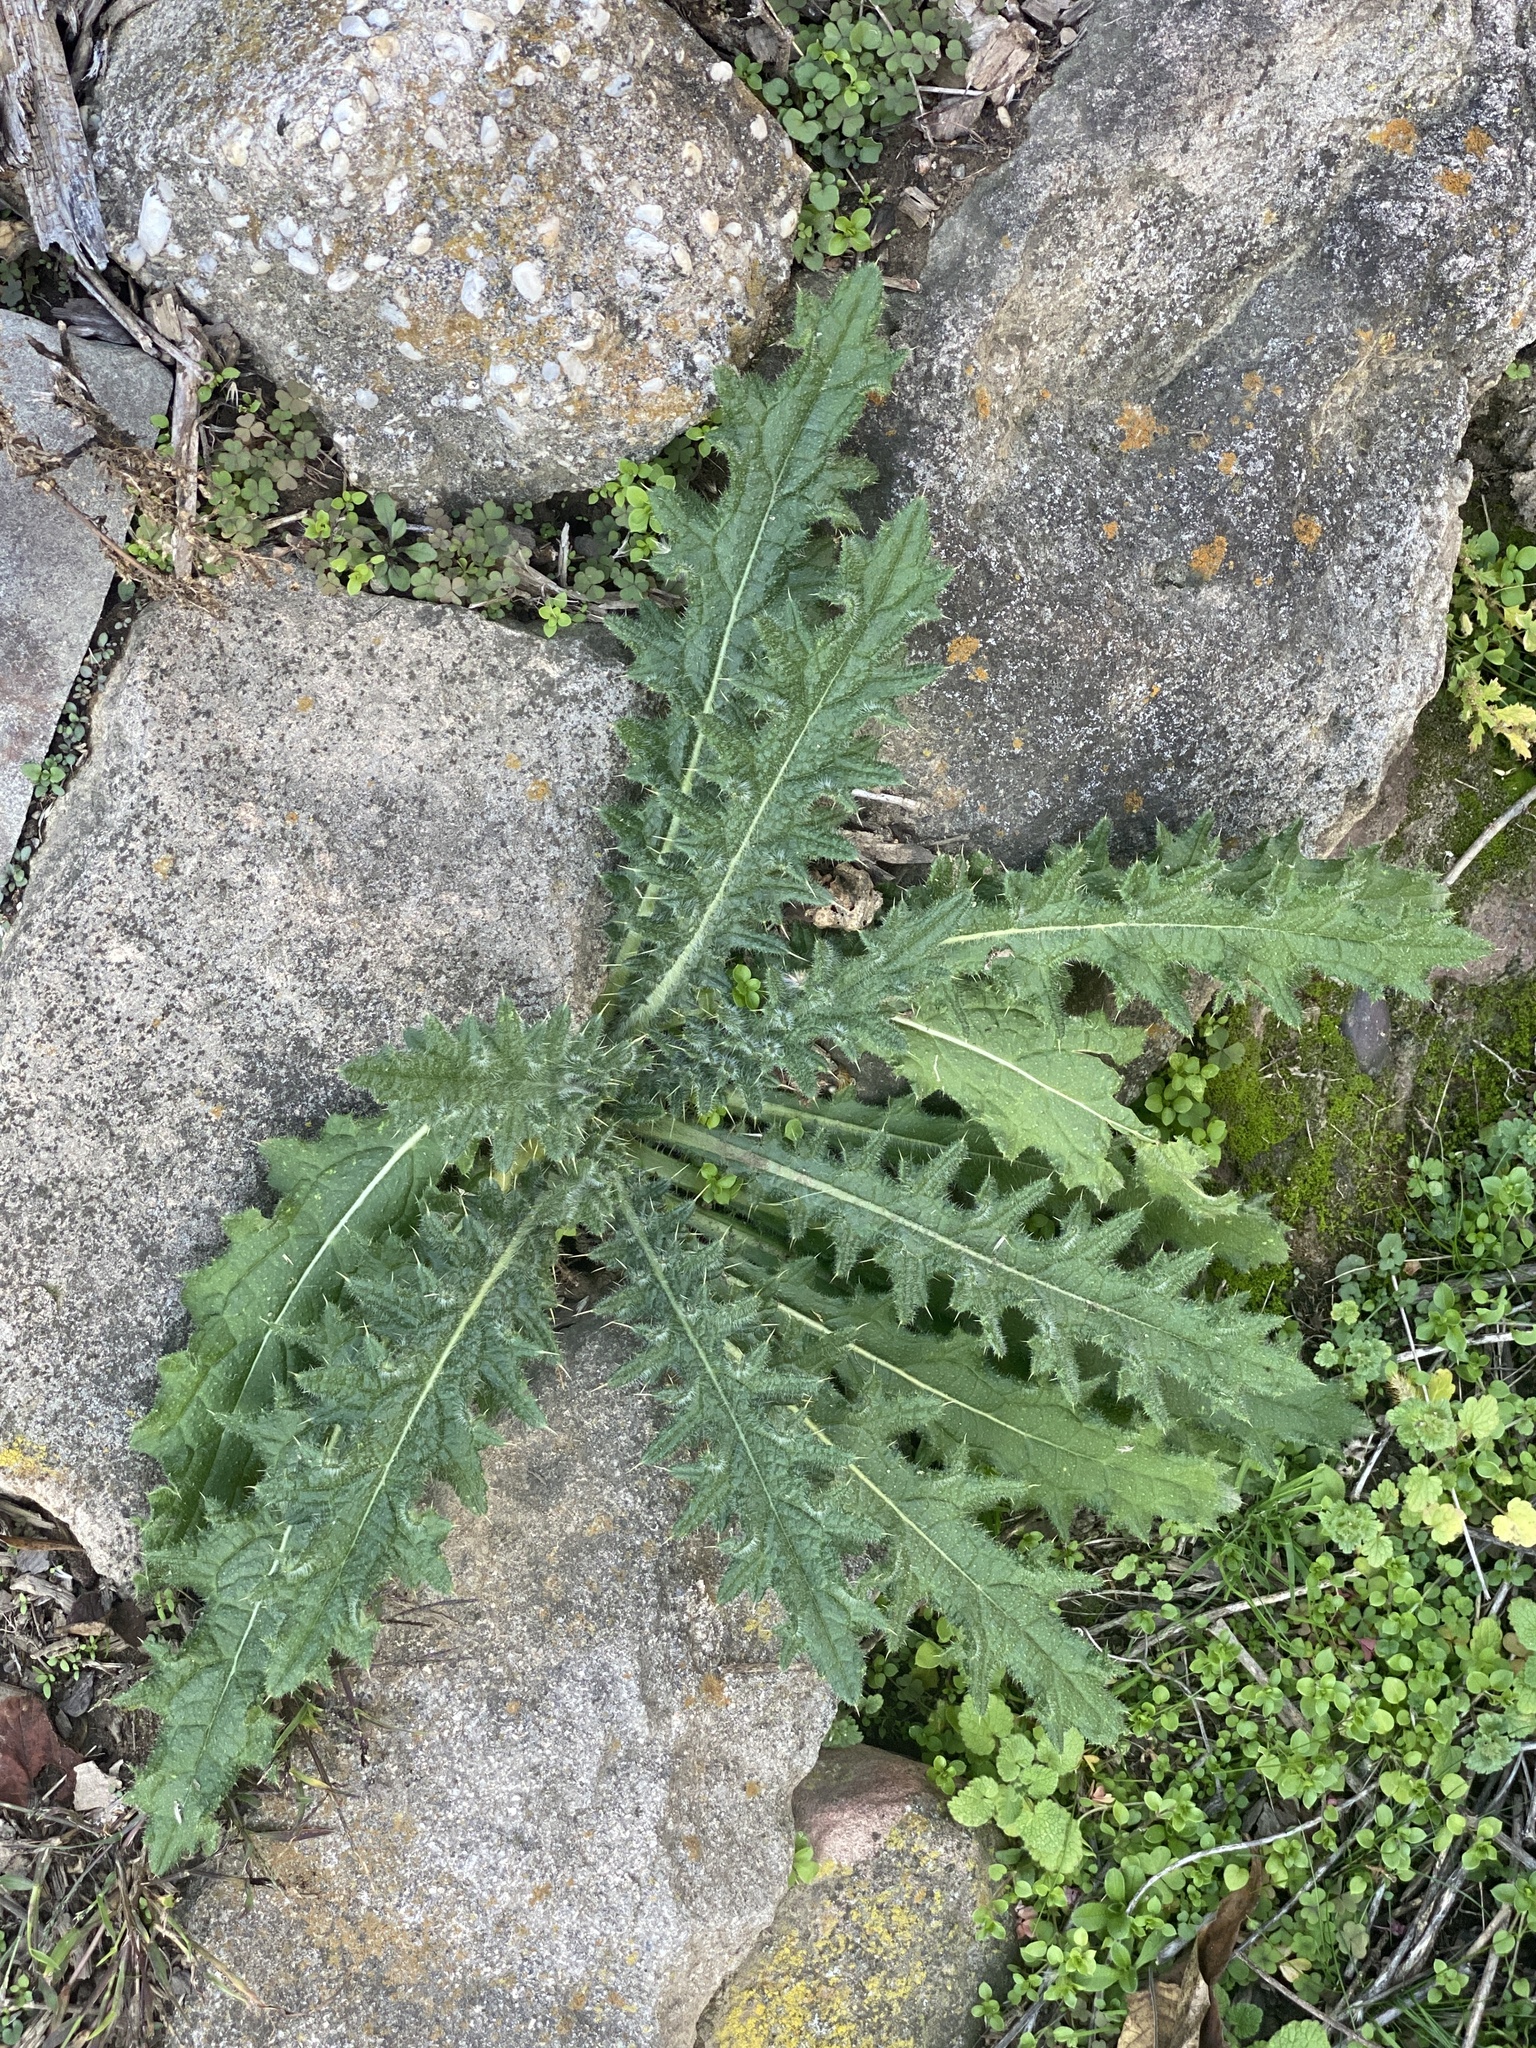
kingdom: Plantae
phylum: Tracheophyta
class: Magnoliopsida
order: Asterales
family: Asteraceae
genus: Cirsium
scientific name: Cirsium vulgare
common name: Bull thistle
